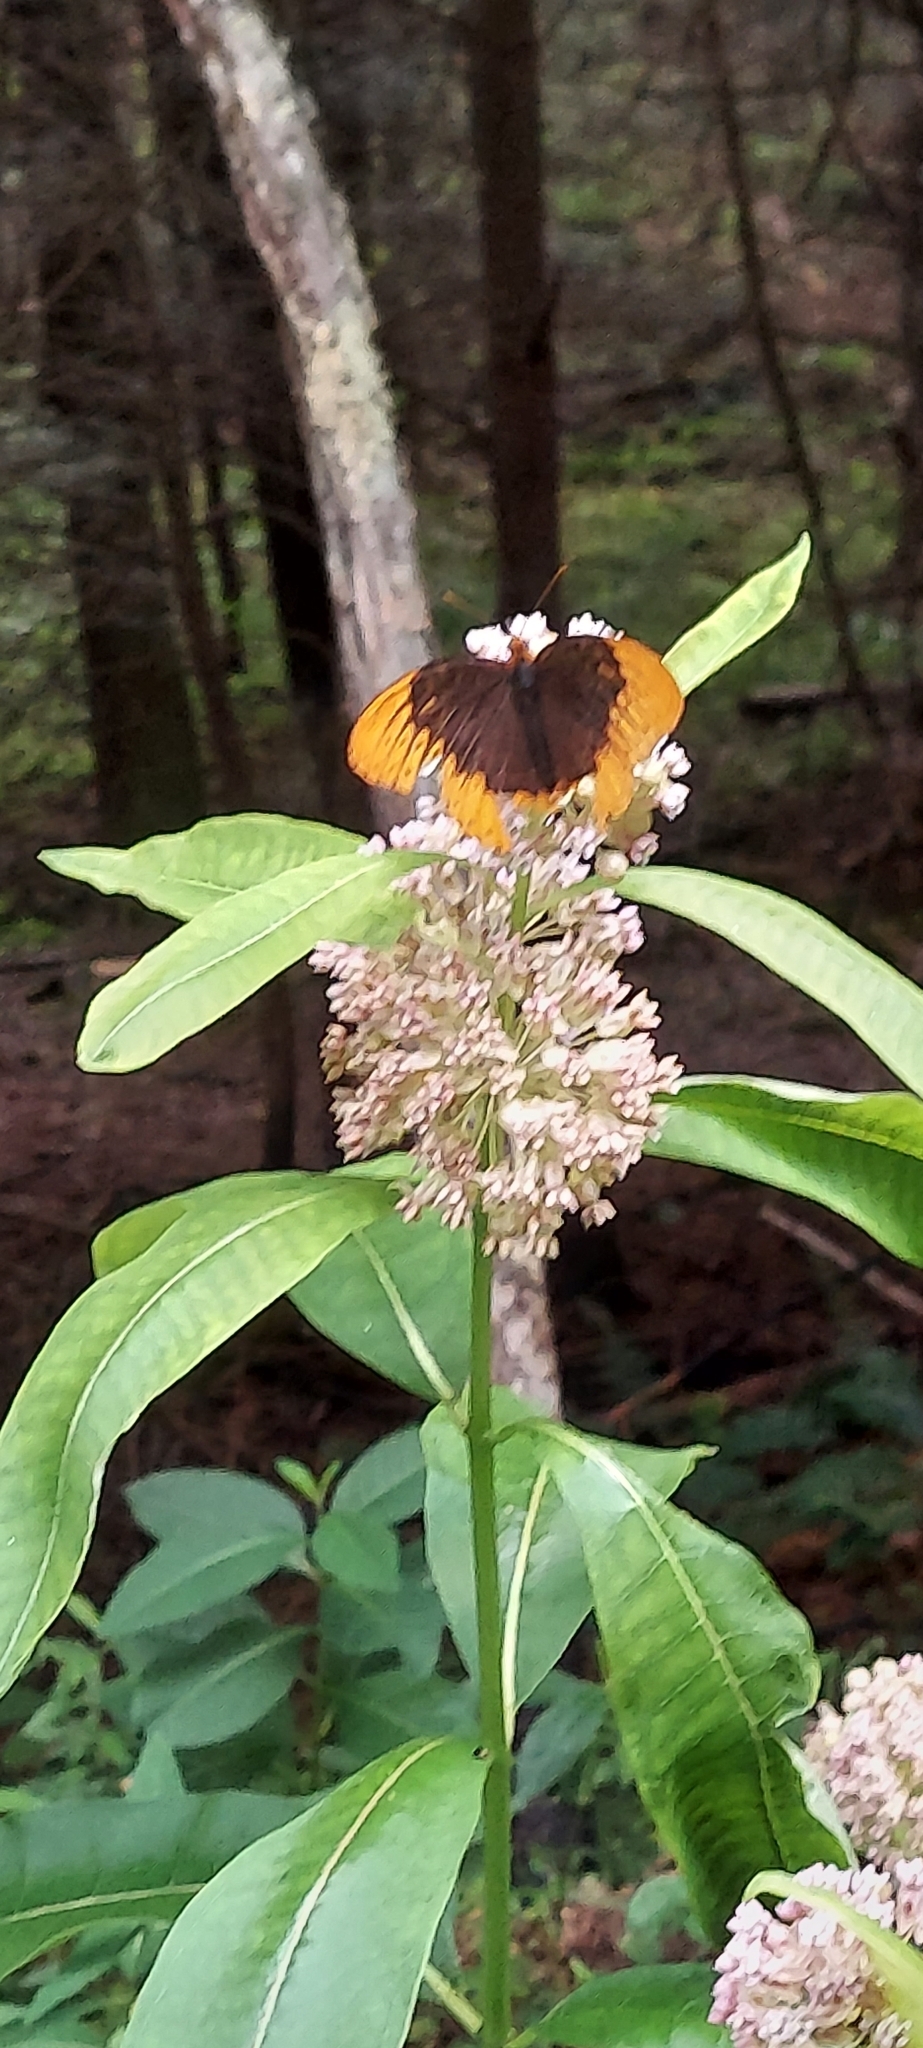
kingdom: Animalia
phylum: Arthropoda
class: Insecta
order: Lepidoptera
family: Nymphalidae
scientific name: Nymphalidae
